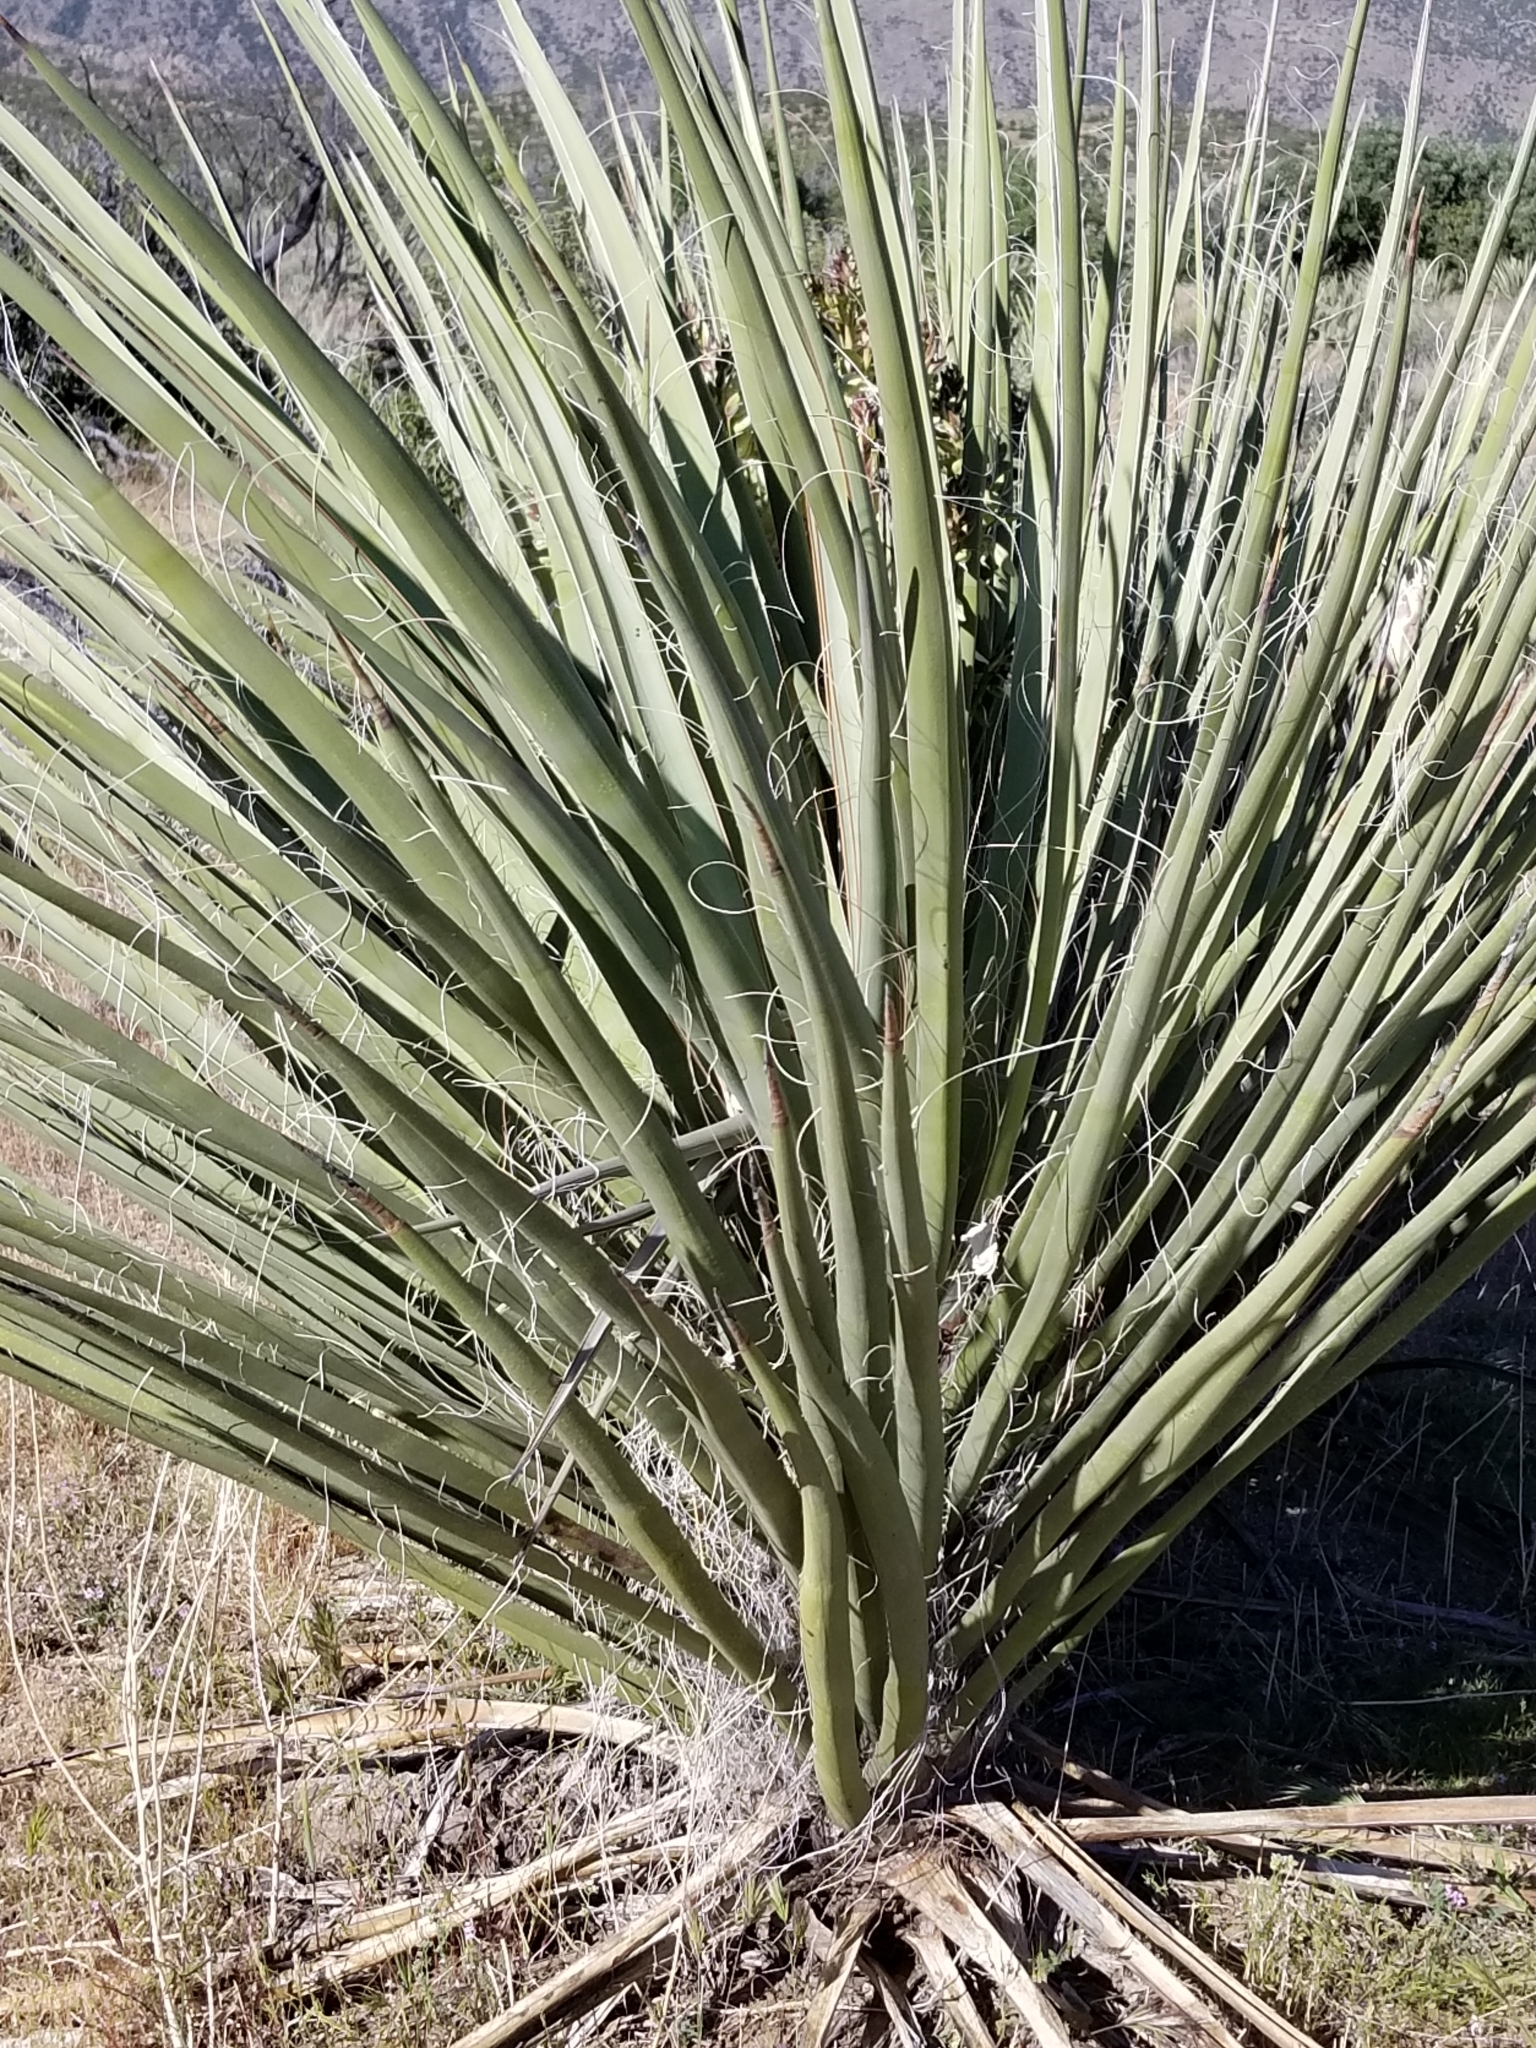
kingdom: Plantae
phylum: Tracheophyta
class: Liliopsida
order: Asparagales
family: Asparagaceae
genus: Yucca
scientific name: Yucca schidigera
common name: Mojave yucca
